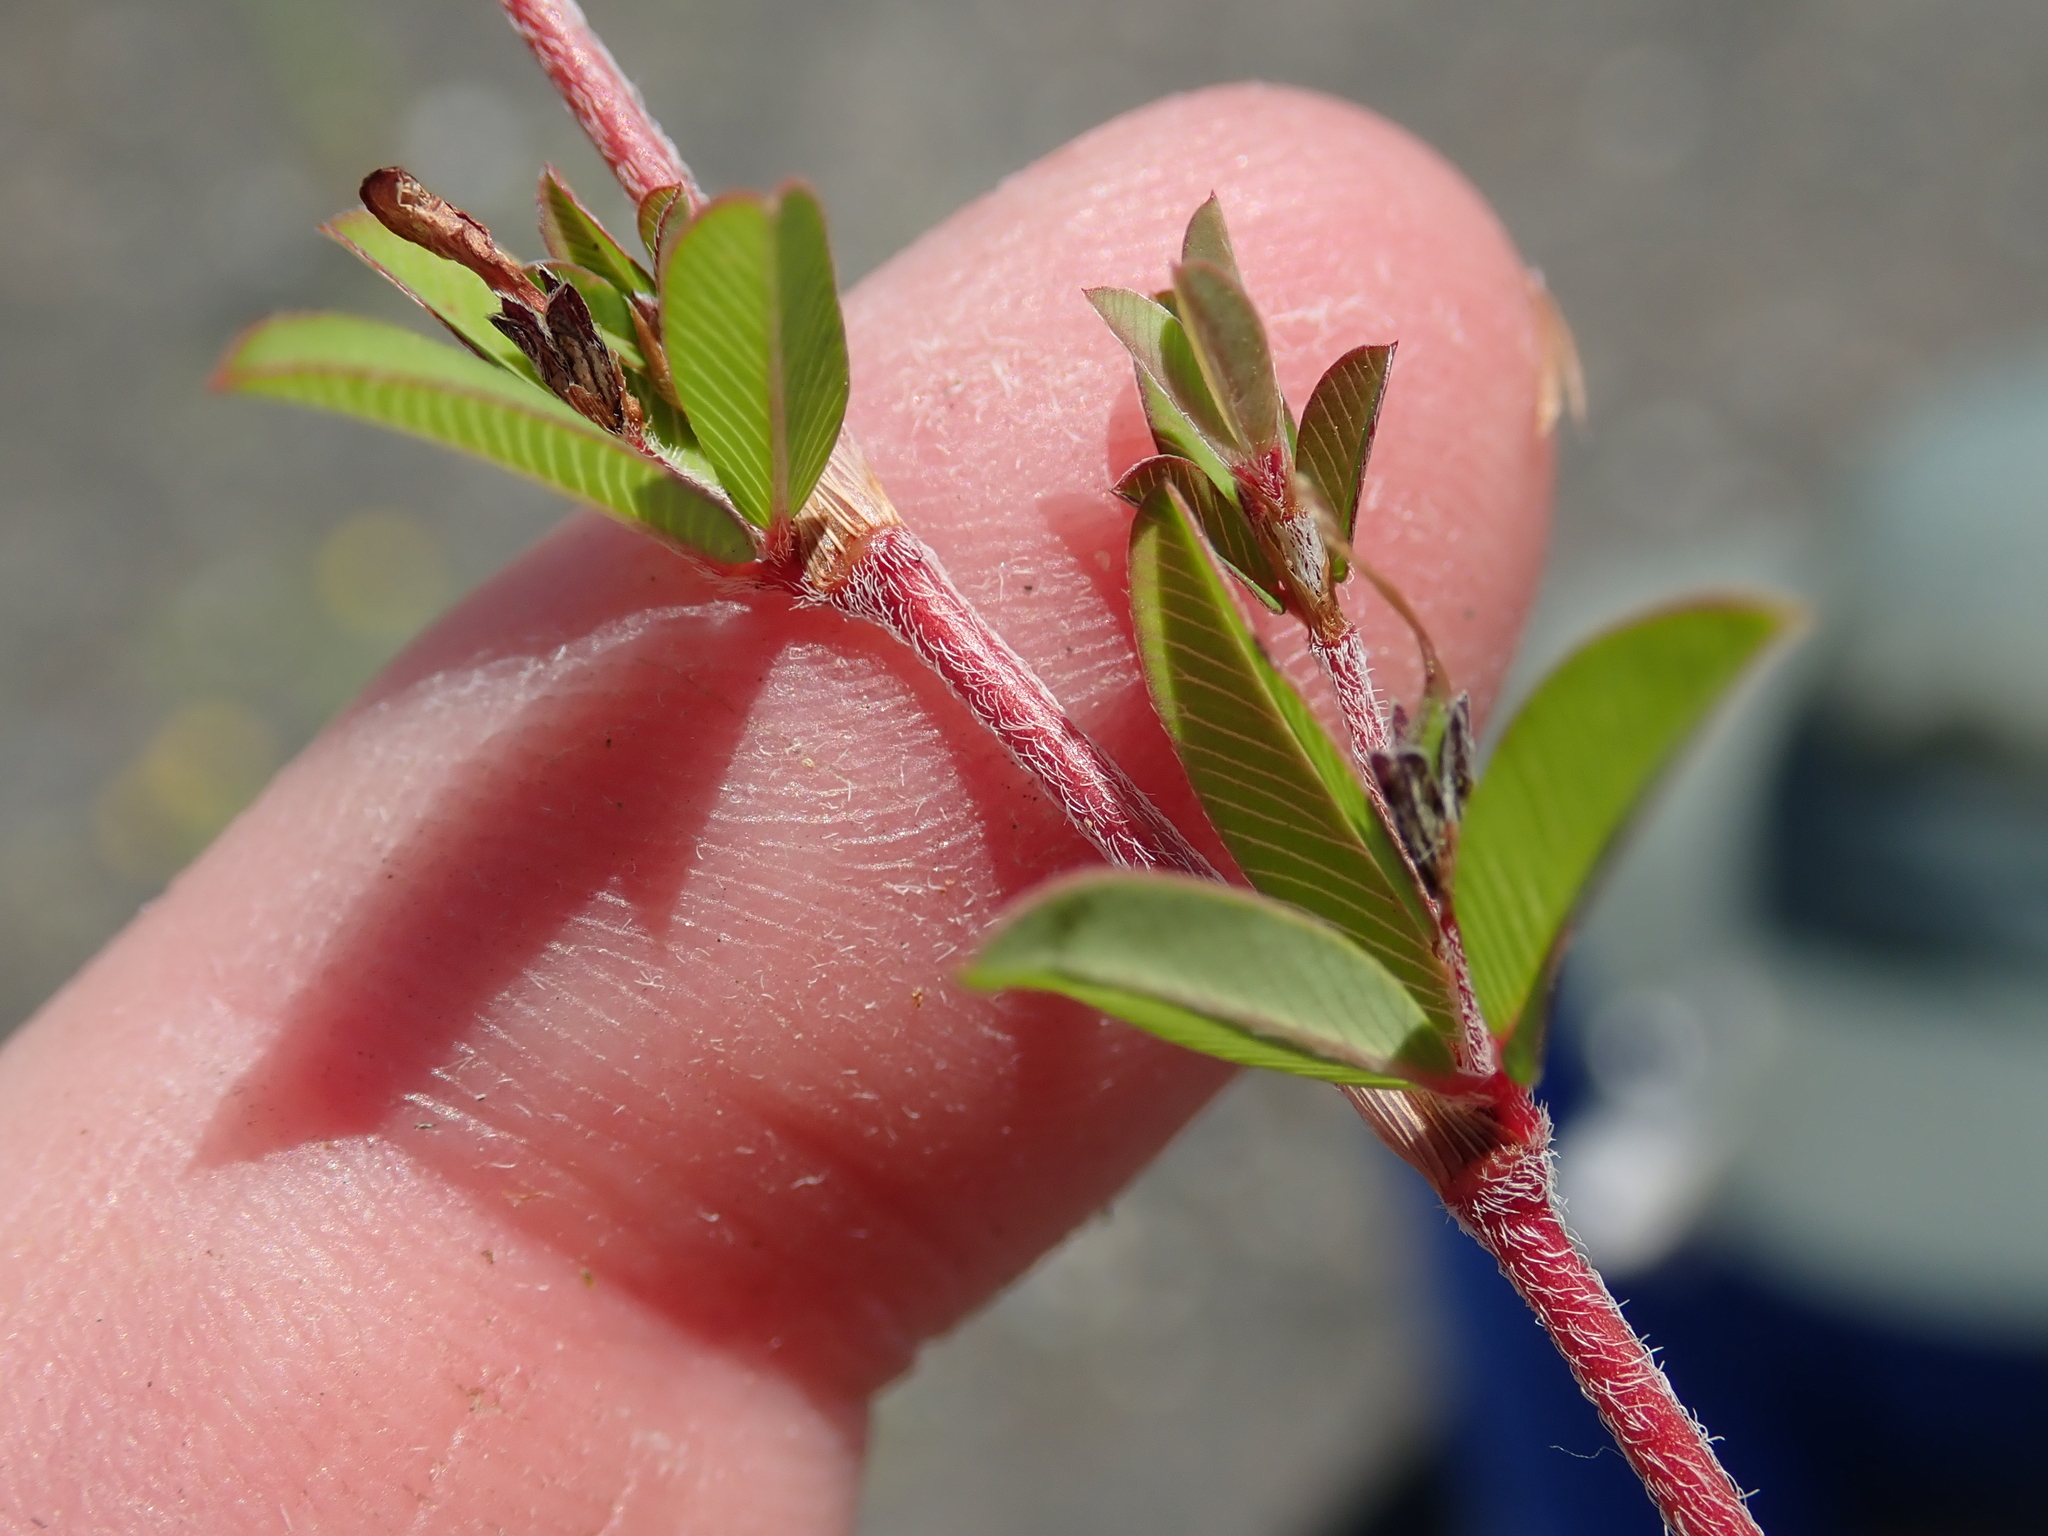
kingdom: Plantae
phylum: Tracheophyta
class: Magnoliopsida
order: Fabales
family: Fabaceae
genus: Kummerowia
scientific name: Kummerowia striata
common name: Japanese clover
